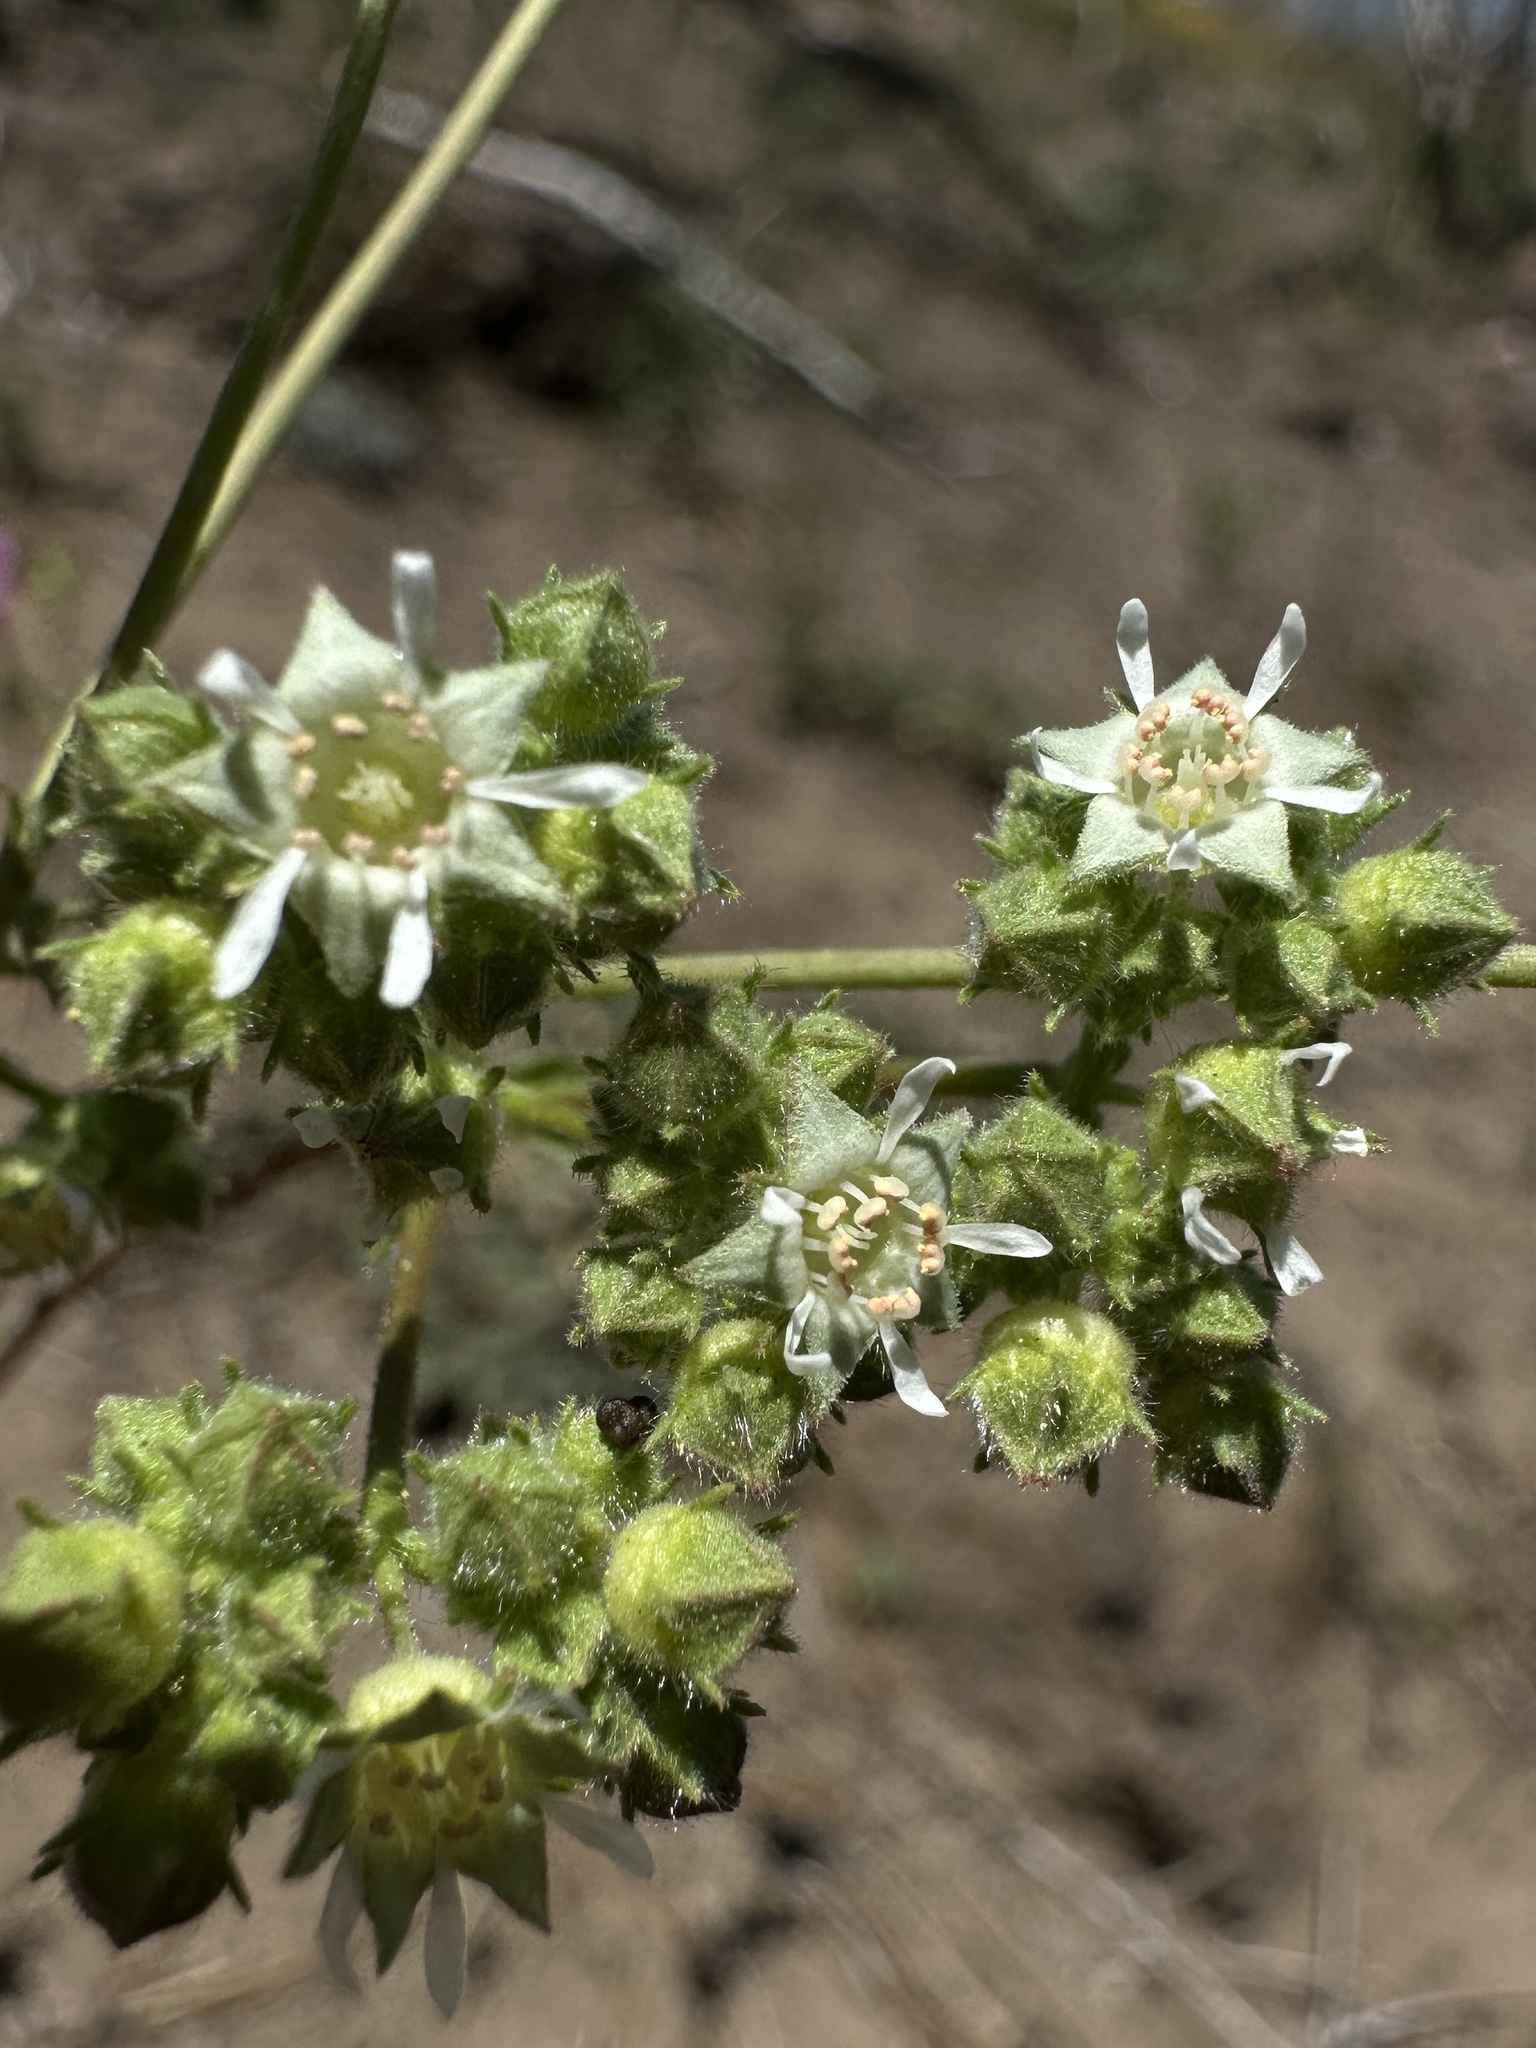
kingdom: Plantae
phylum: Tracheophyta
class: Magnoliopsida
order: Rosales
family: Rosaceae
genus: Potentilla
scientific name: Potentilla tilingii
